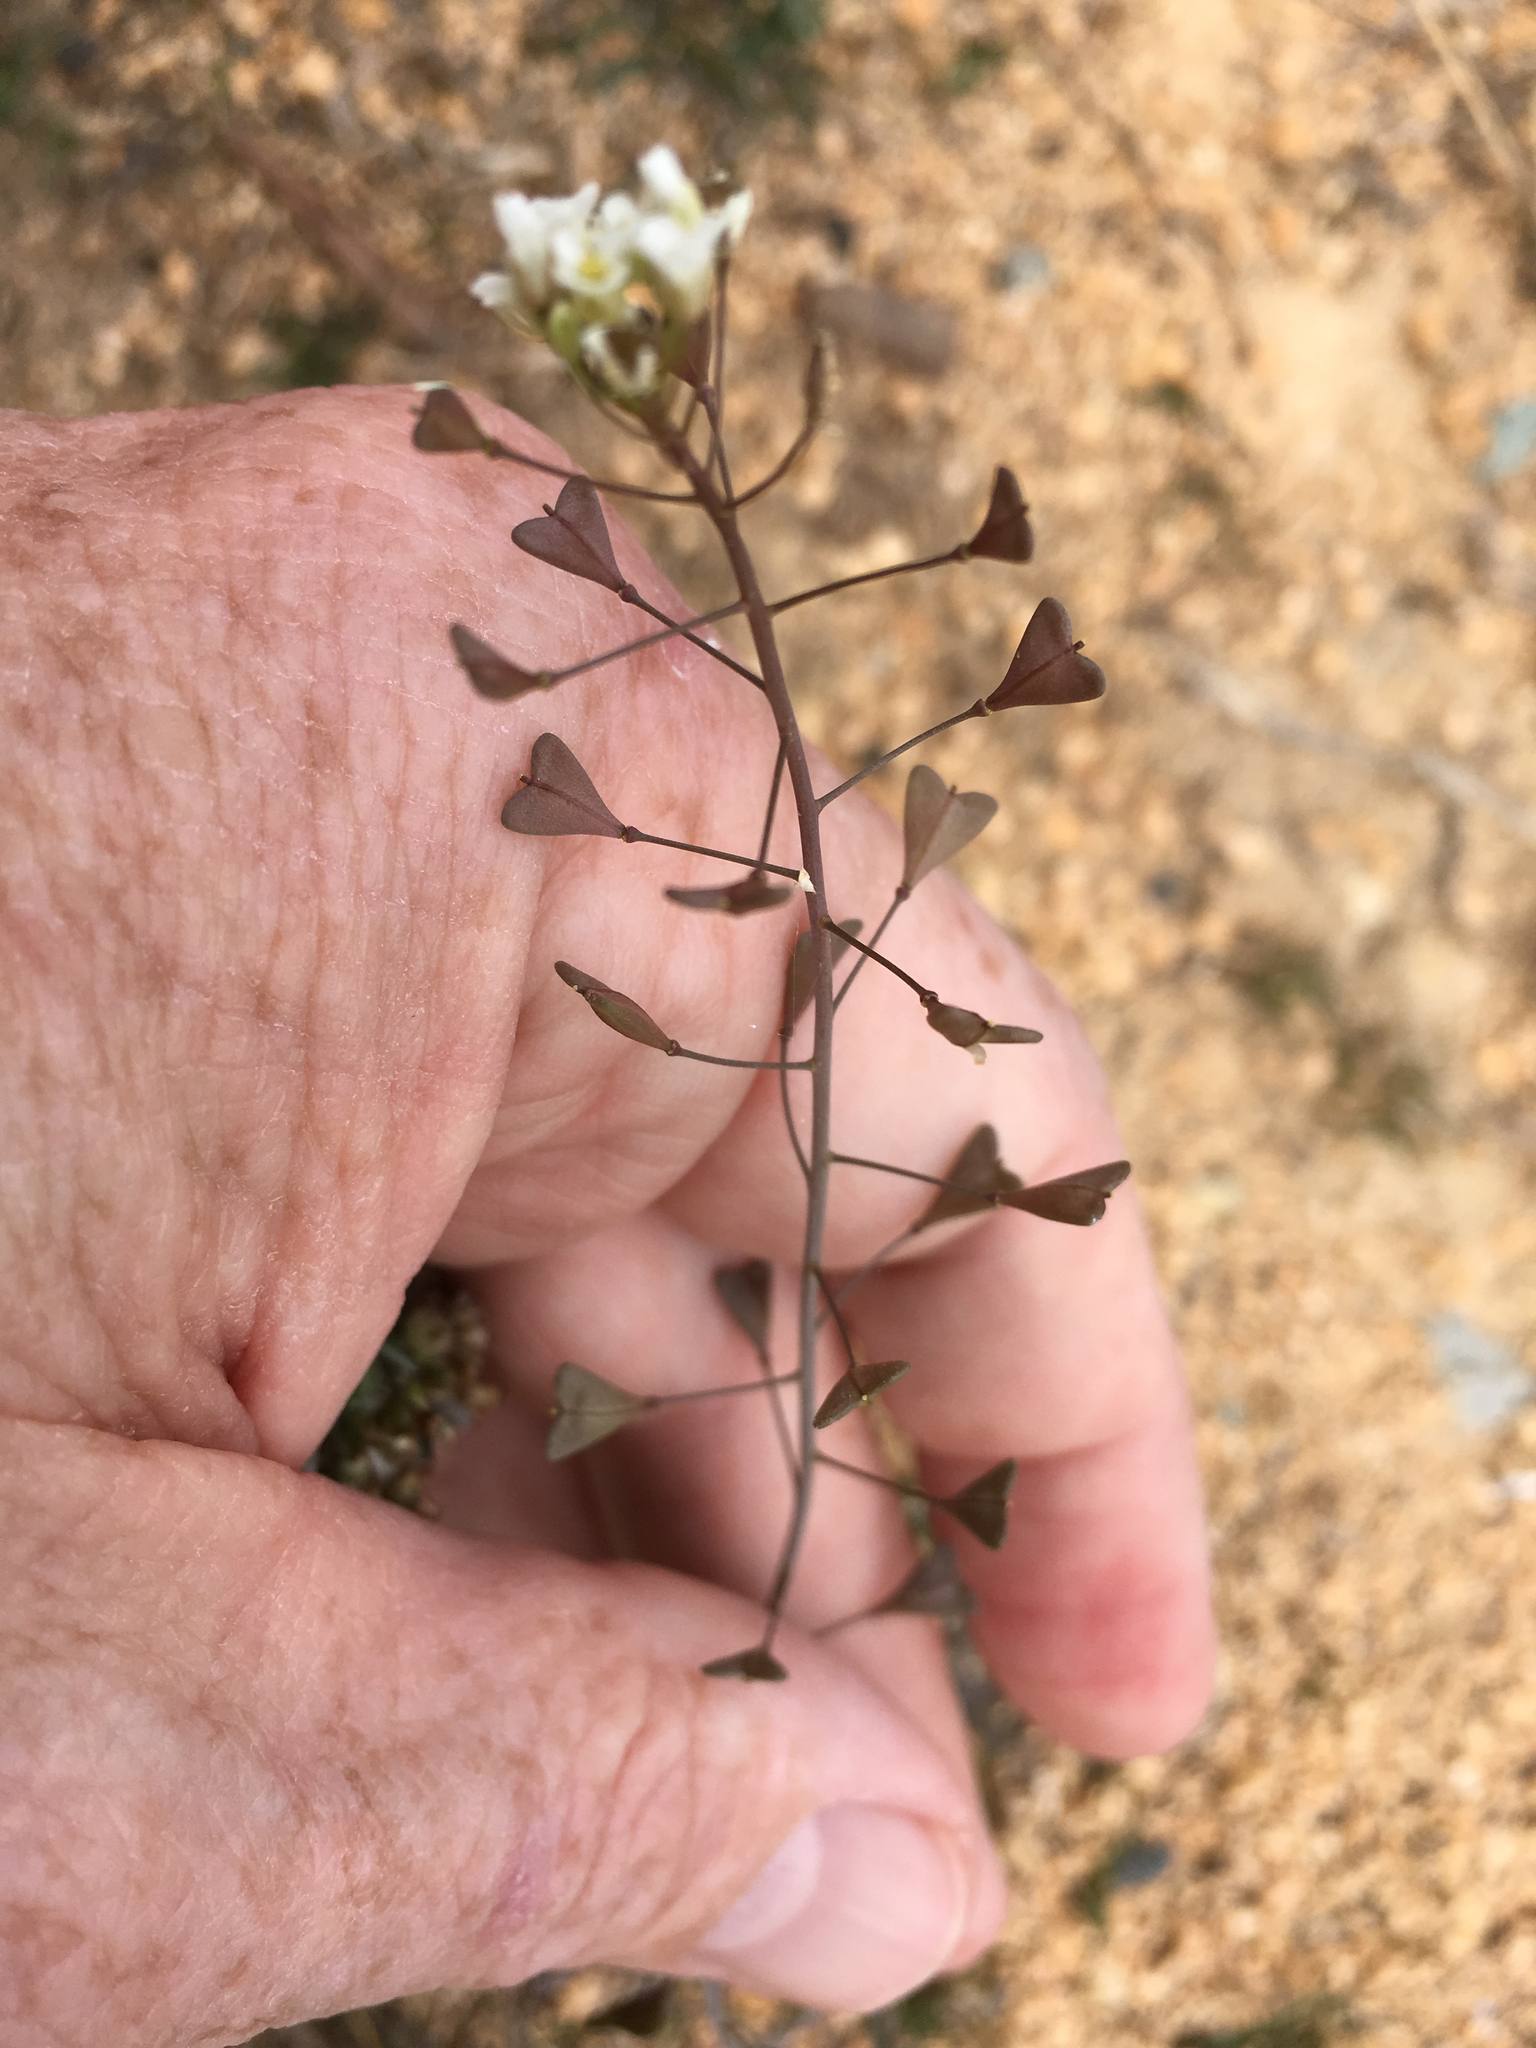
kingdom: Plantae
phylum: Tracheophyta
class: Magnoliopsida
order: Brassicales
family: Brassicaceae
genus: Capsella
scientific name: Capsella bursa-pastoris
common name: Shepherd's purse
